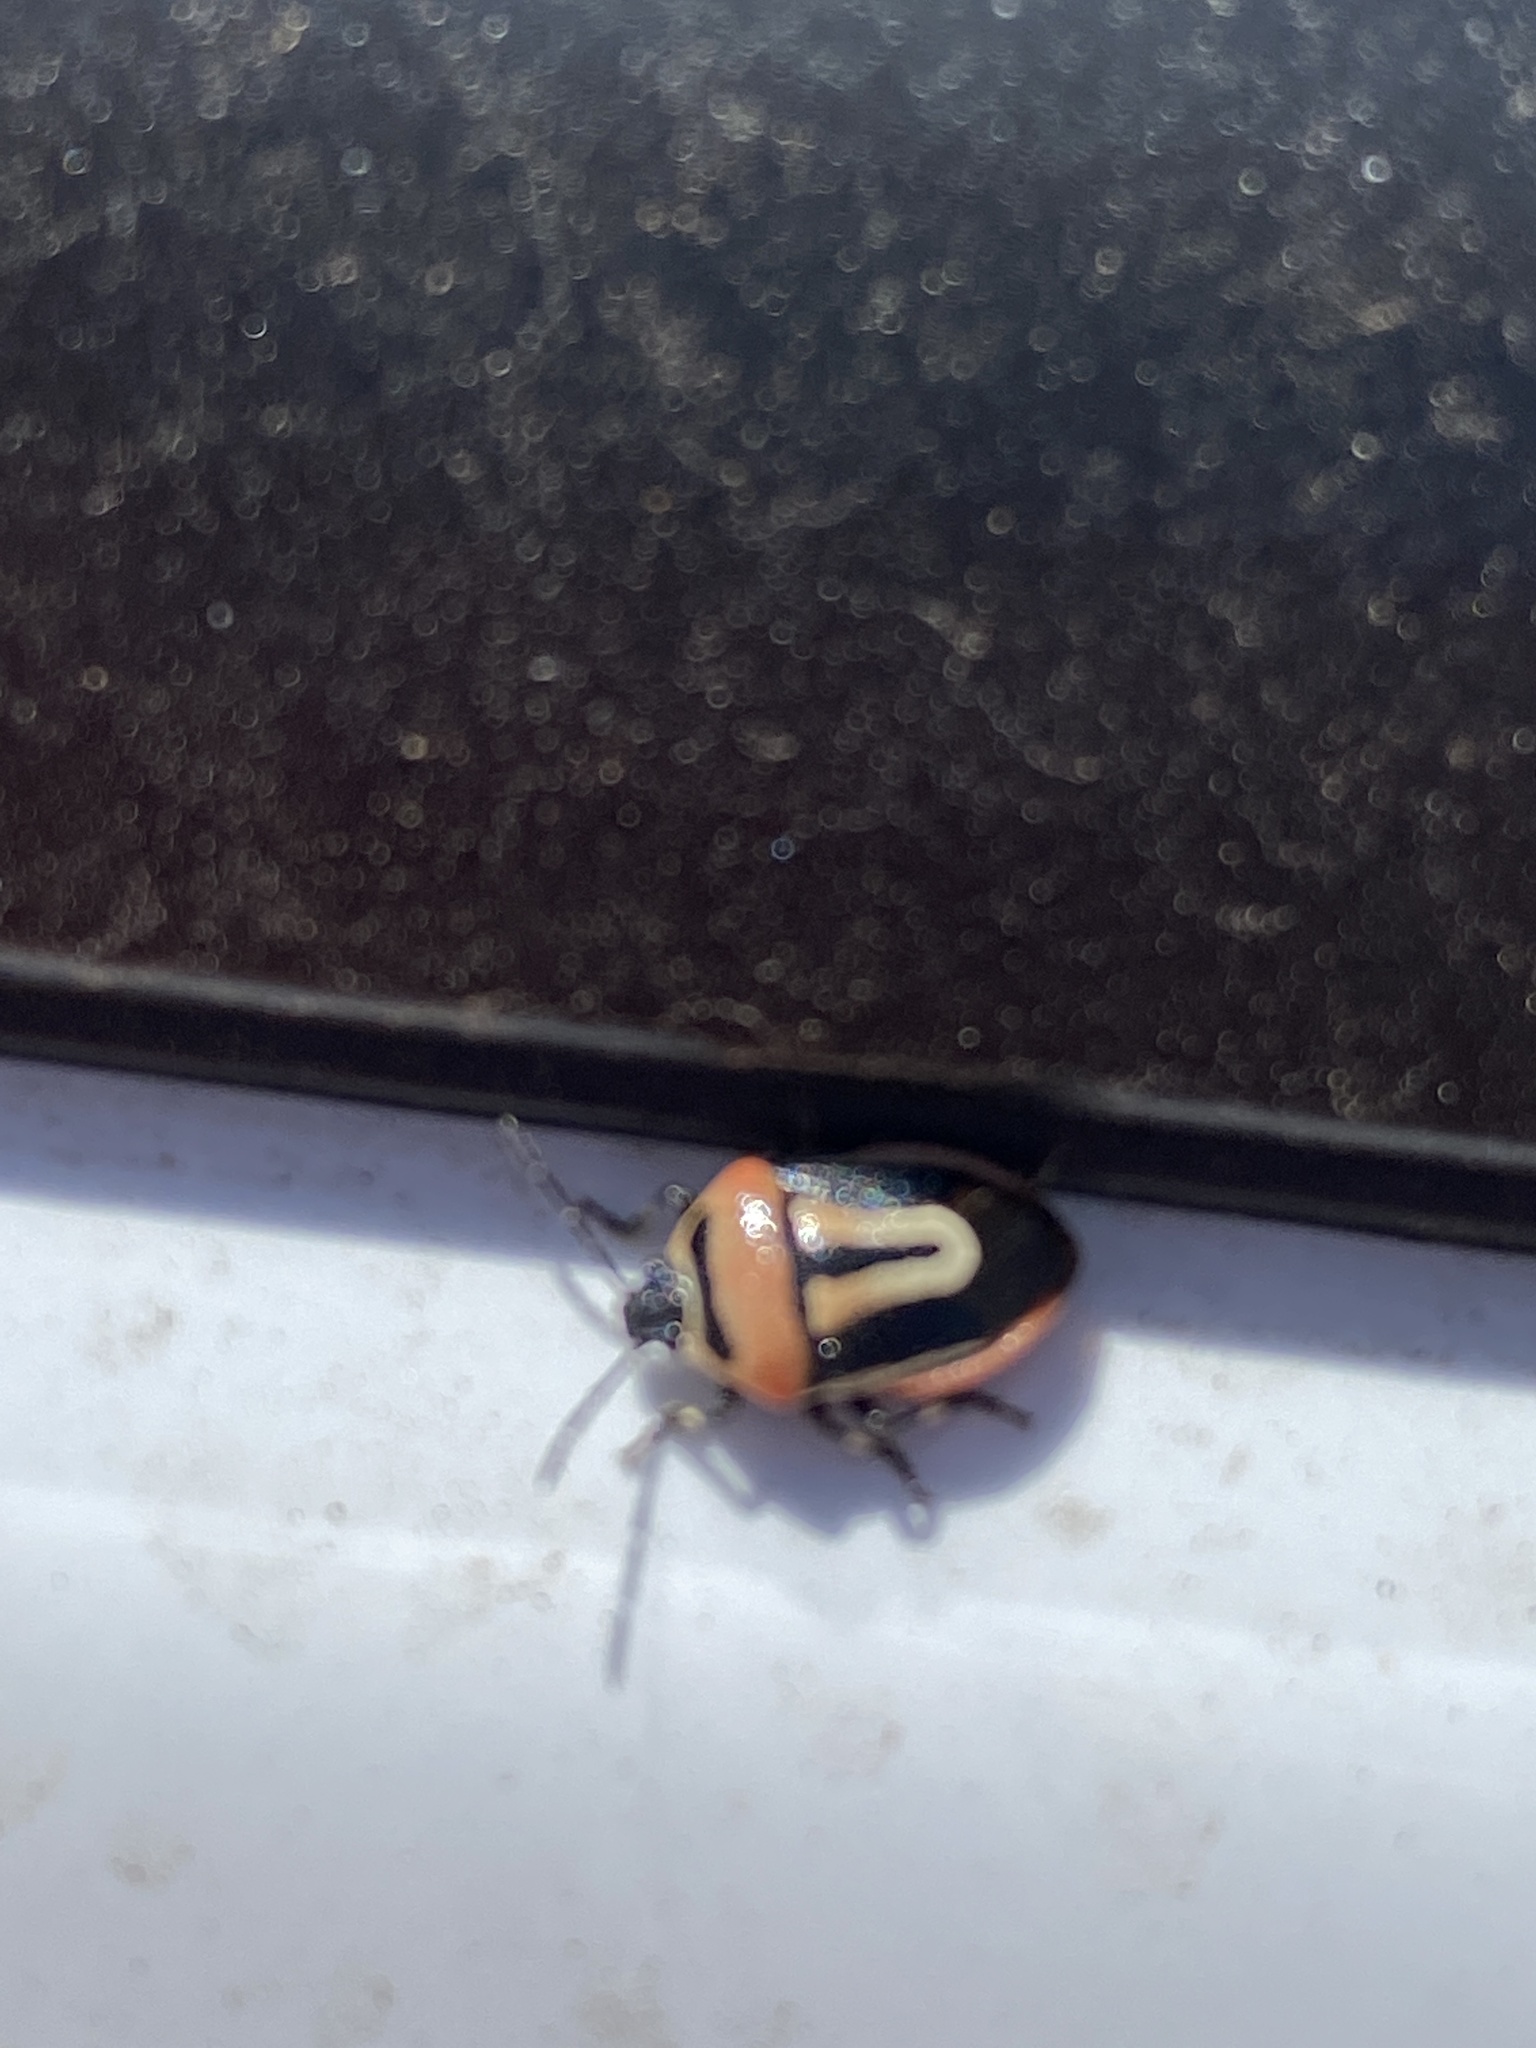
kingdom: Animalia
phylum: Arthropoda
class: Insecta
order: Hemiptera
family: Pentatomidae
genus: Perillus
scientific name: Perillus exaptus
